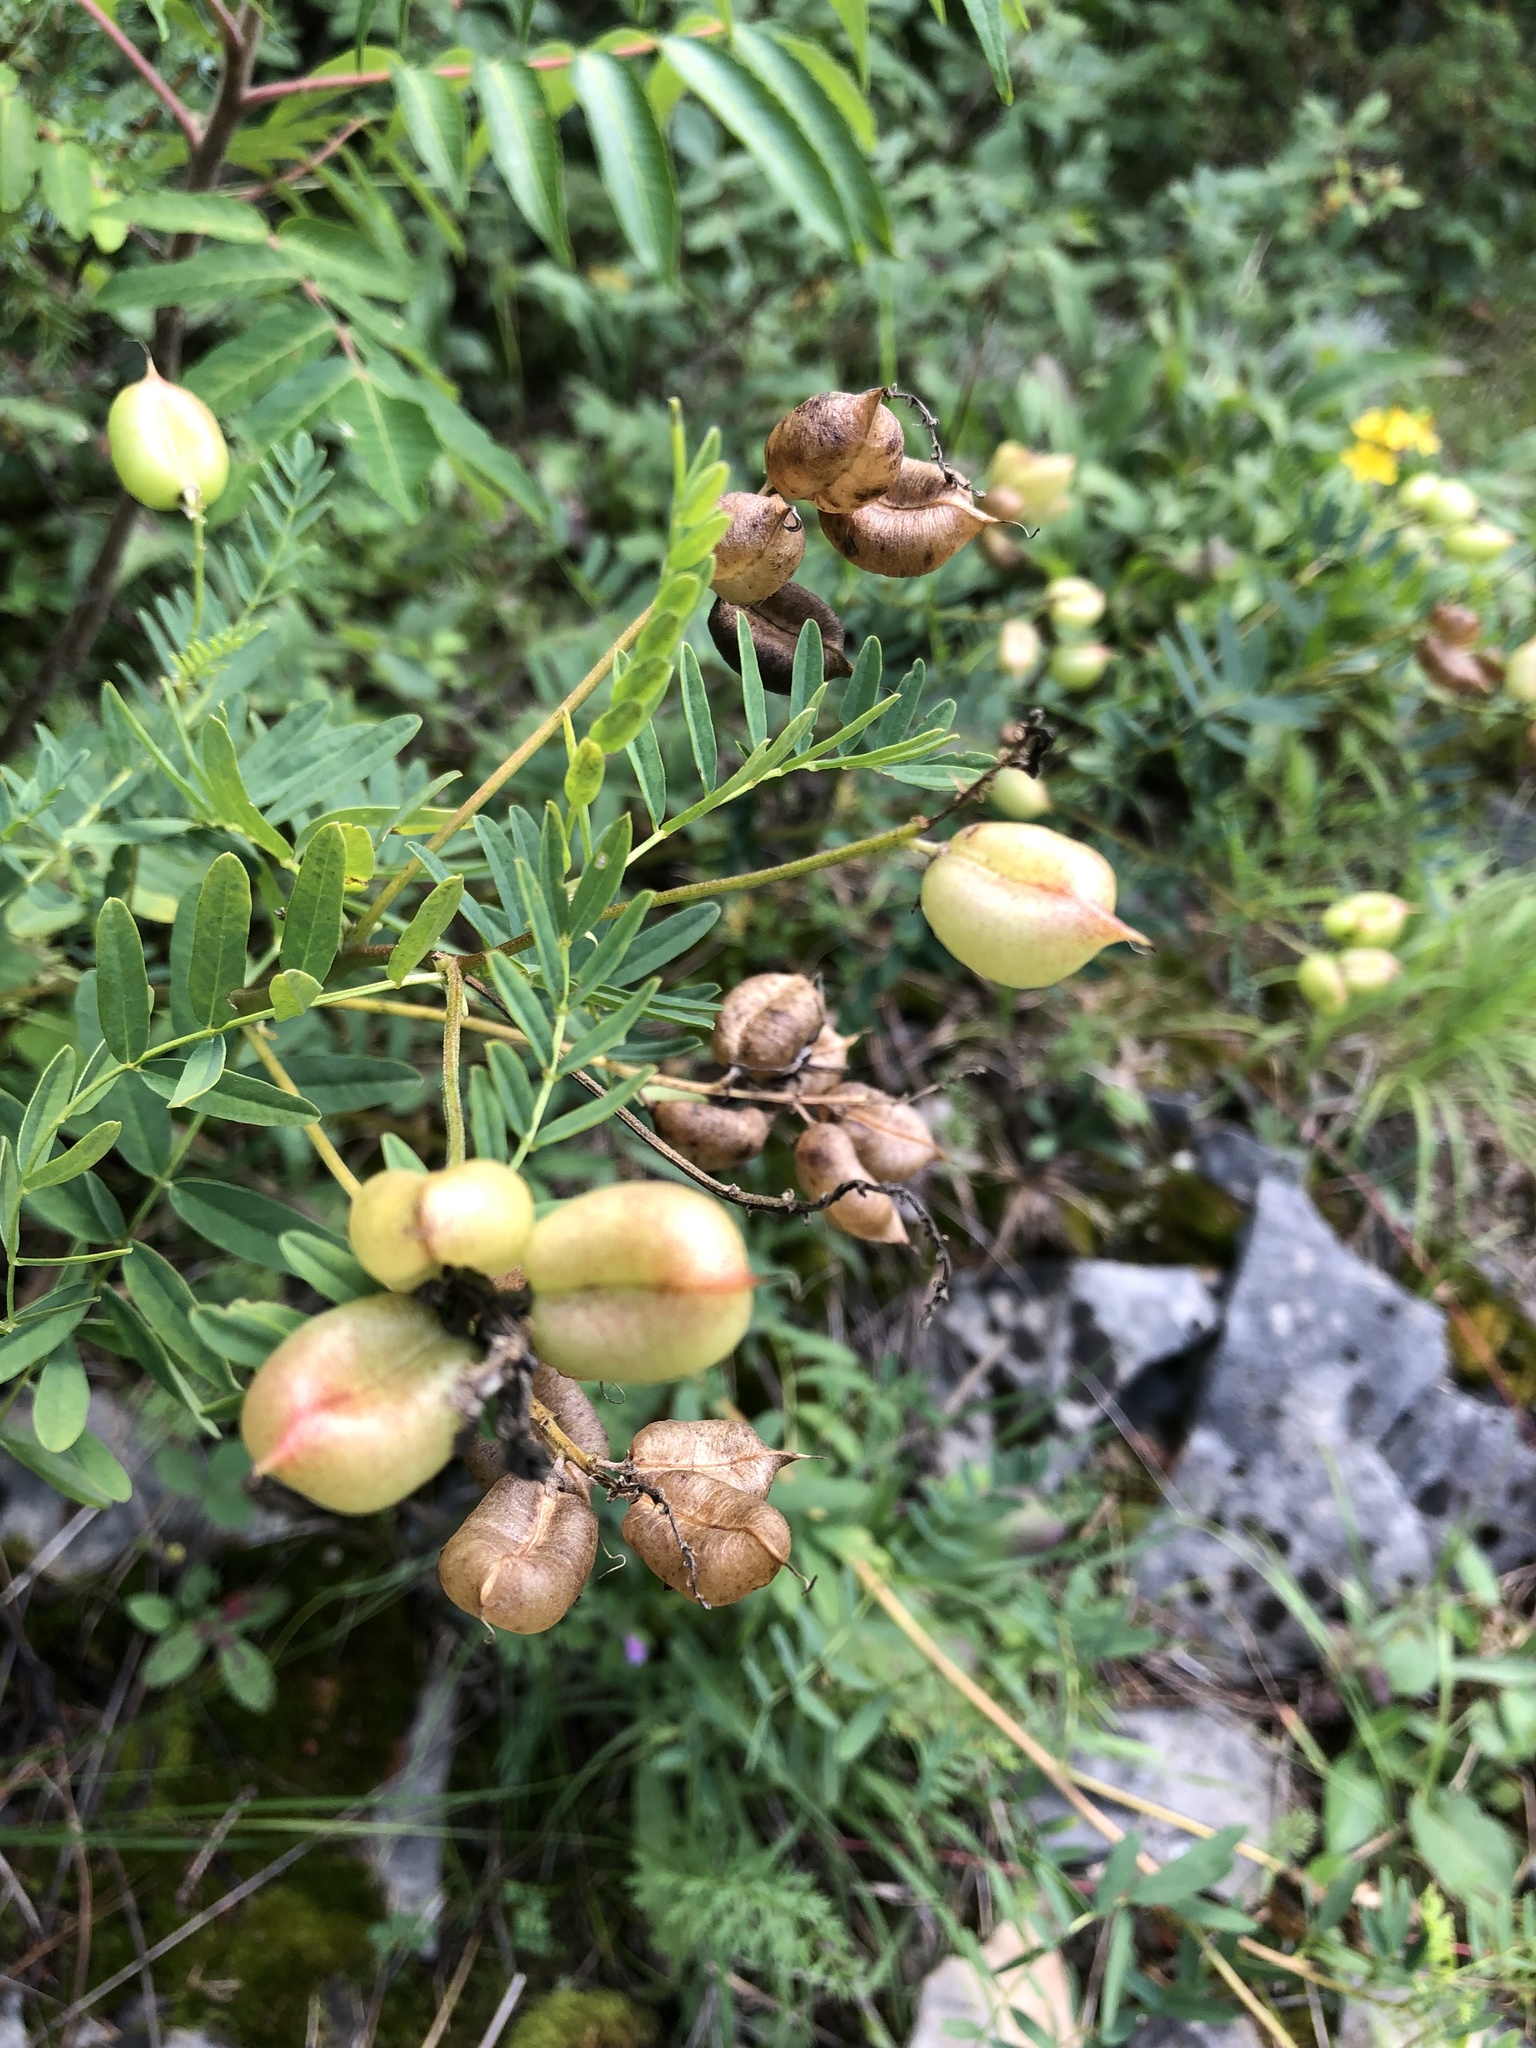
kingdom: Plantae
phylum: Tracheophyta
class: Magnoliopsida
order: Fabales
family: Fabaceae
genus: Astragalus
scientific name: Astragalus neglectus
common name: Cooper's milk-vetch
